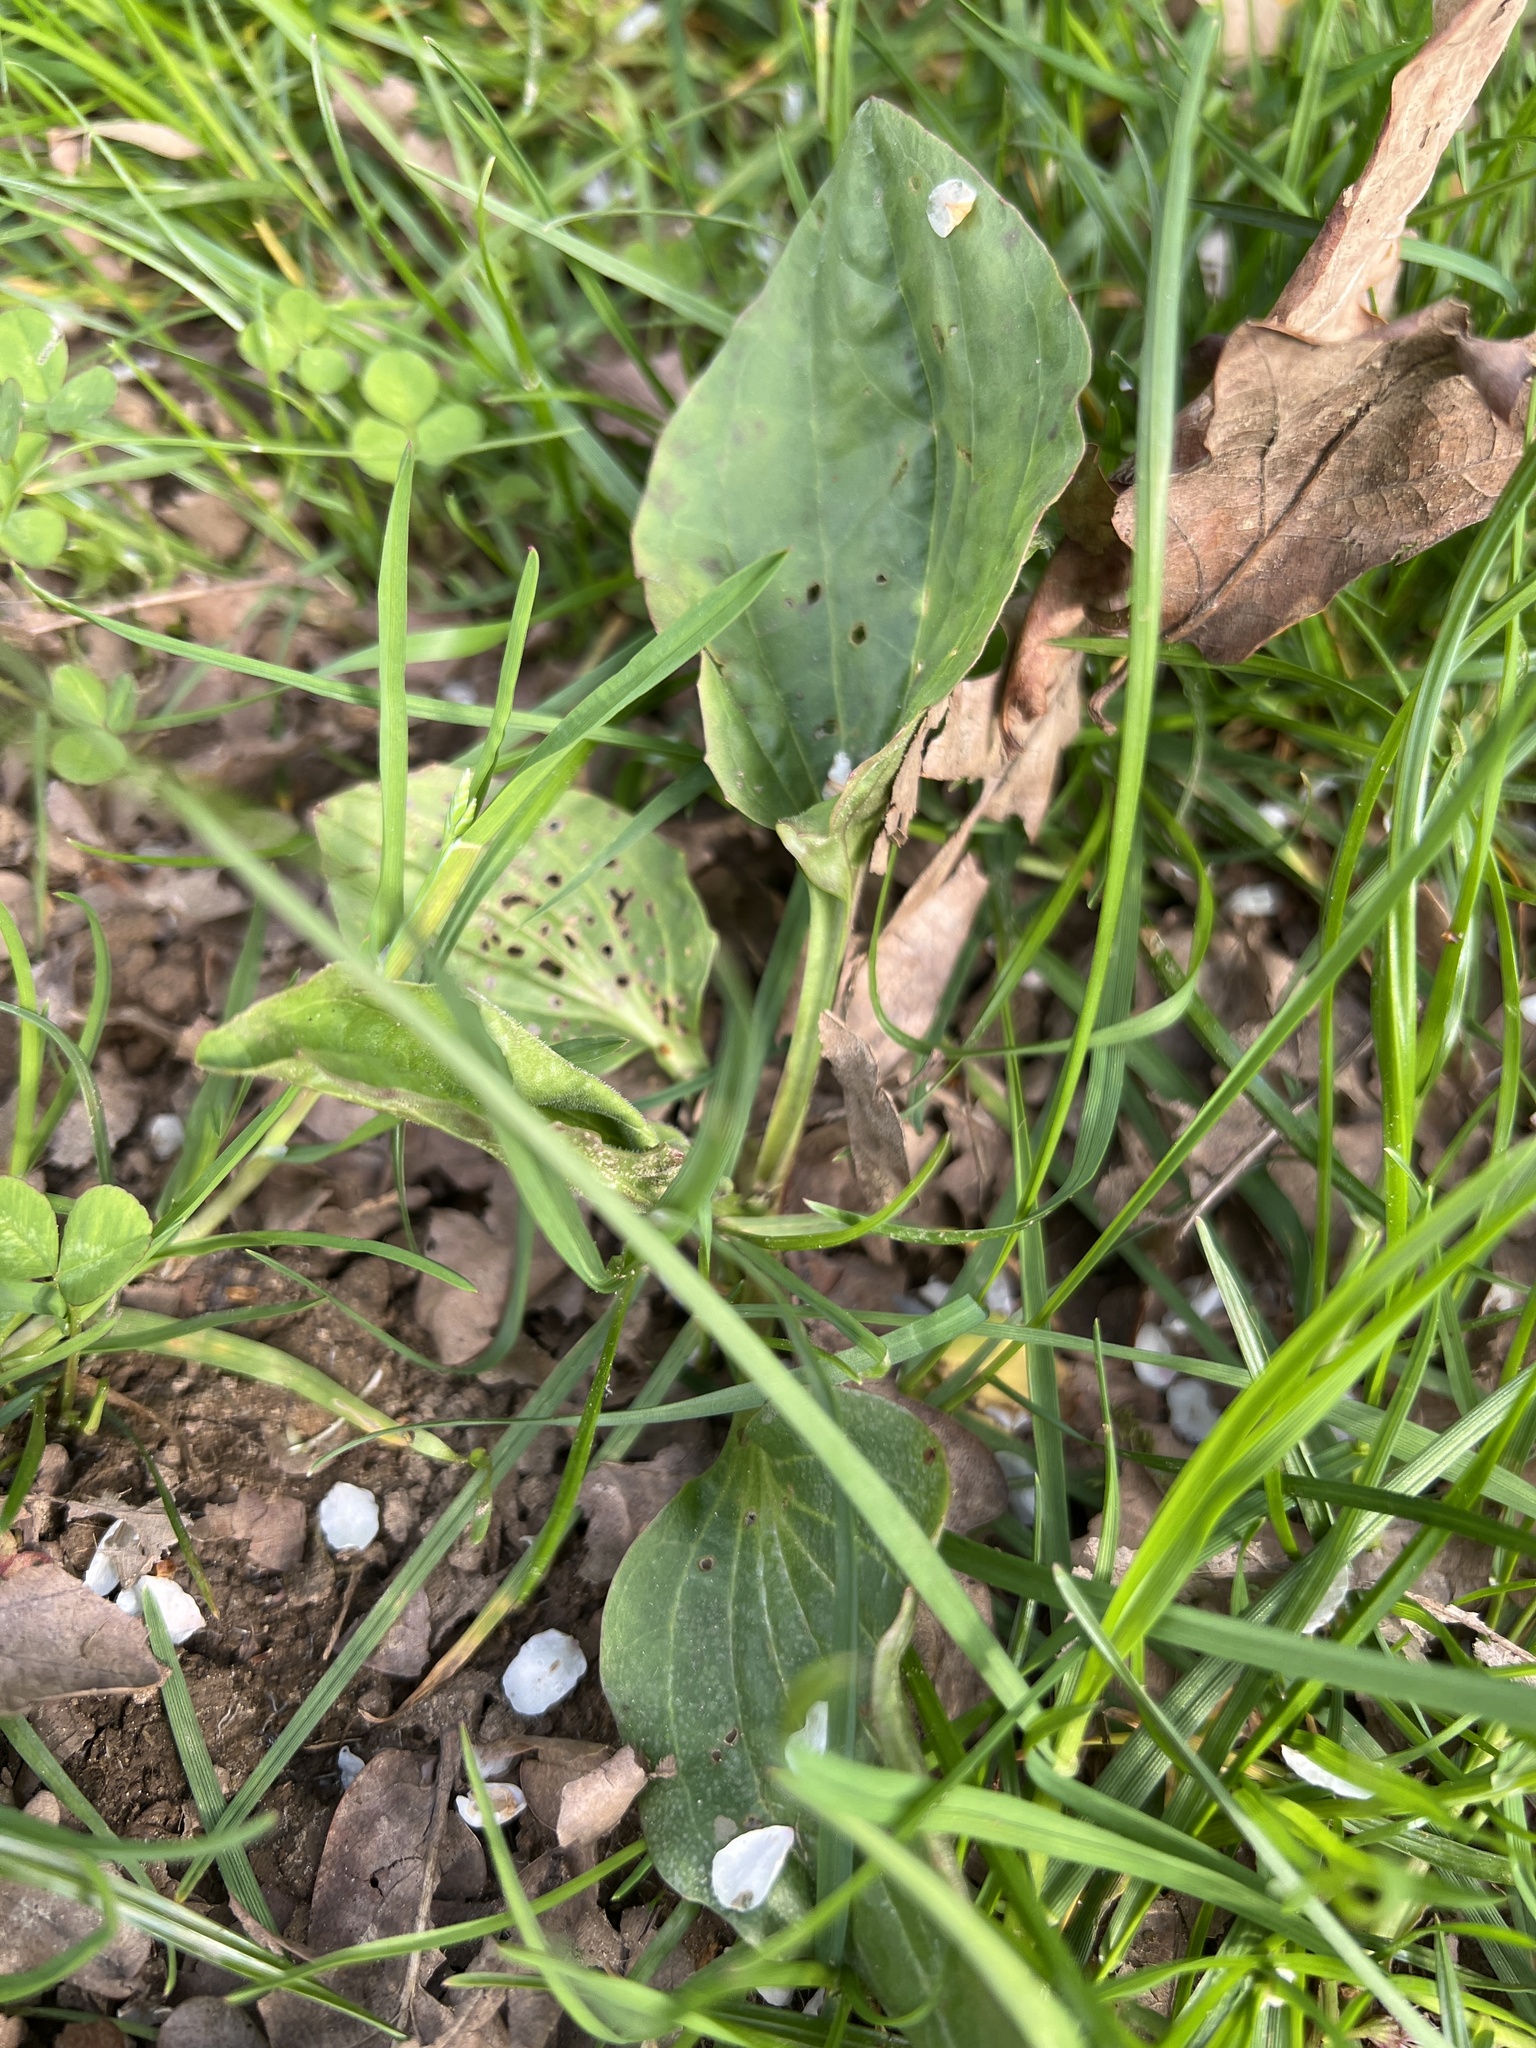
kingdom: Plantae
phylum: Tracheophyta
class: Magnoliopsida
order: Lamiales
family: Plantaginaceae
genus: Plantago
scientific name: Plantago major
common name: Common plantain
